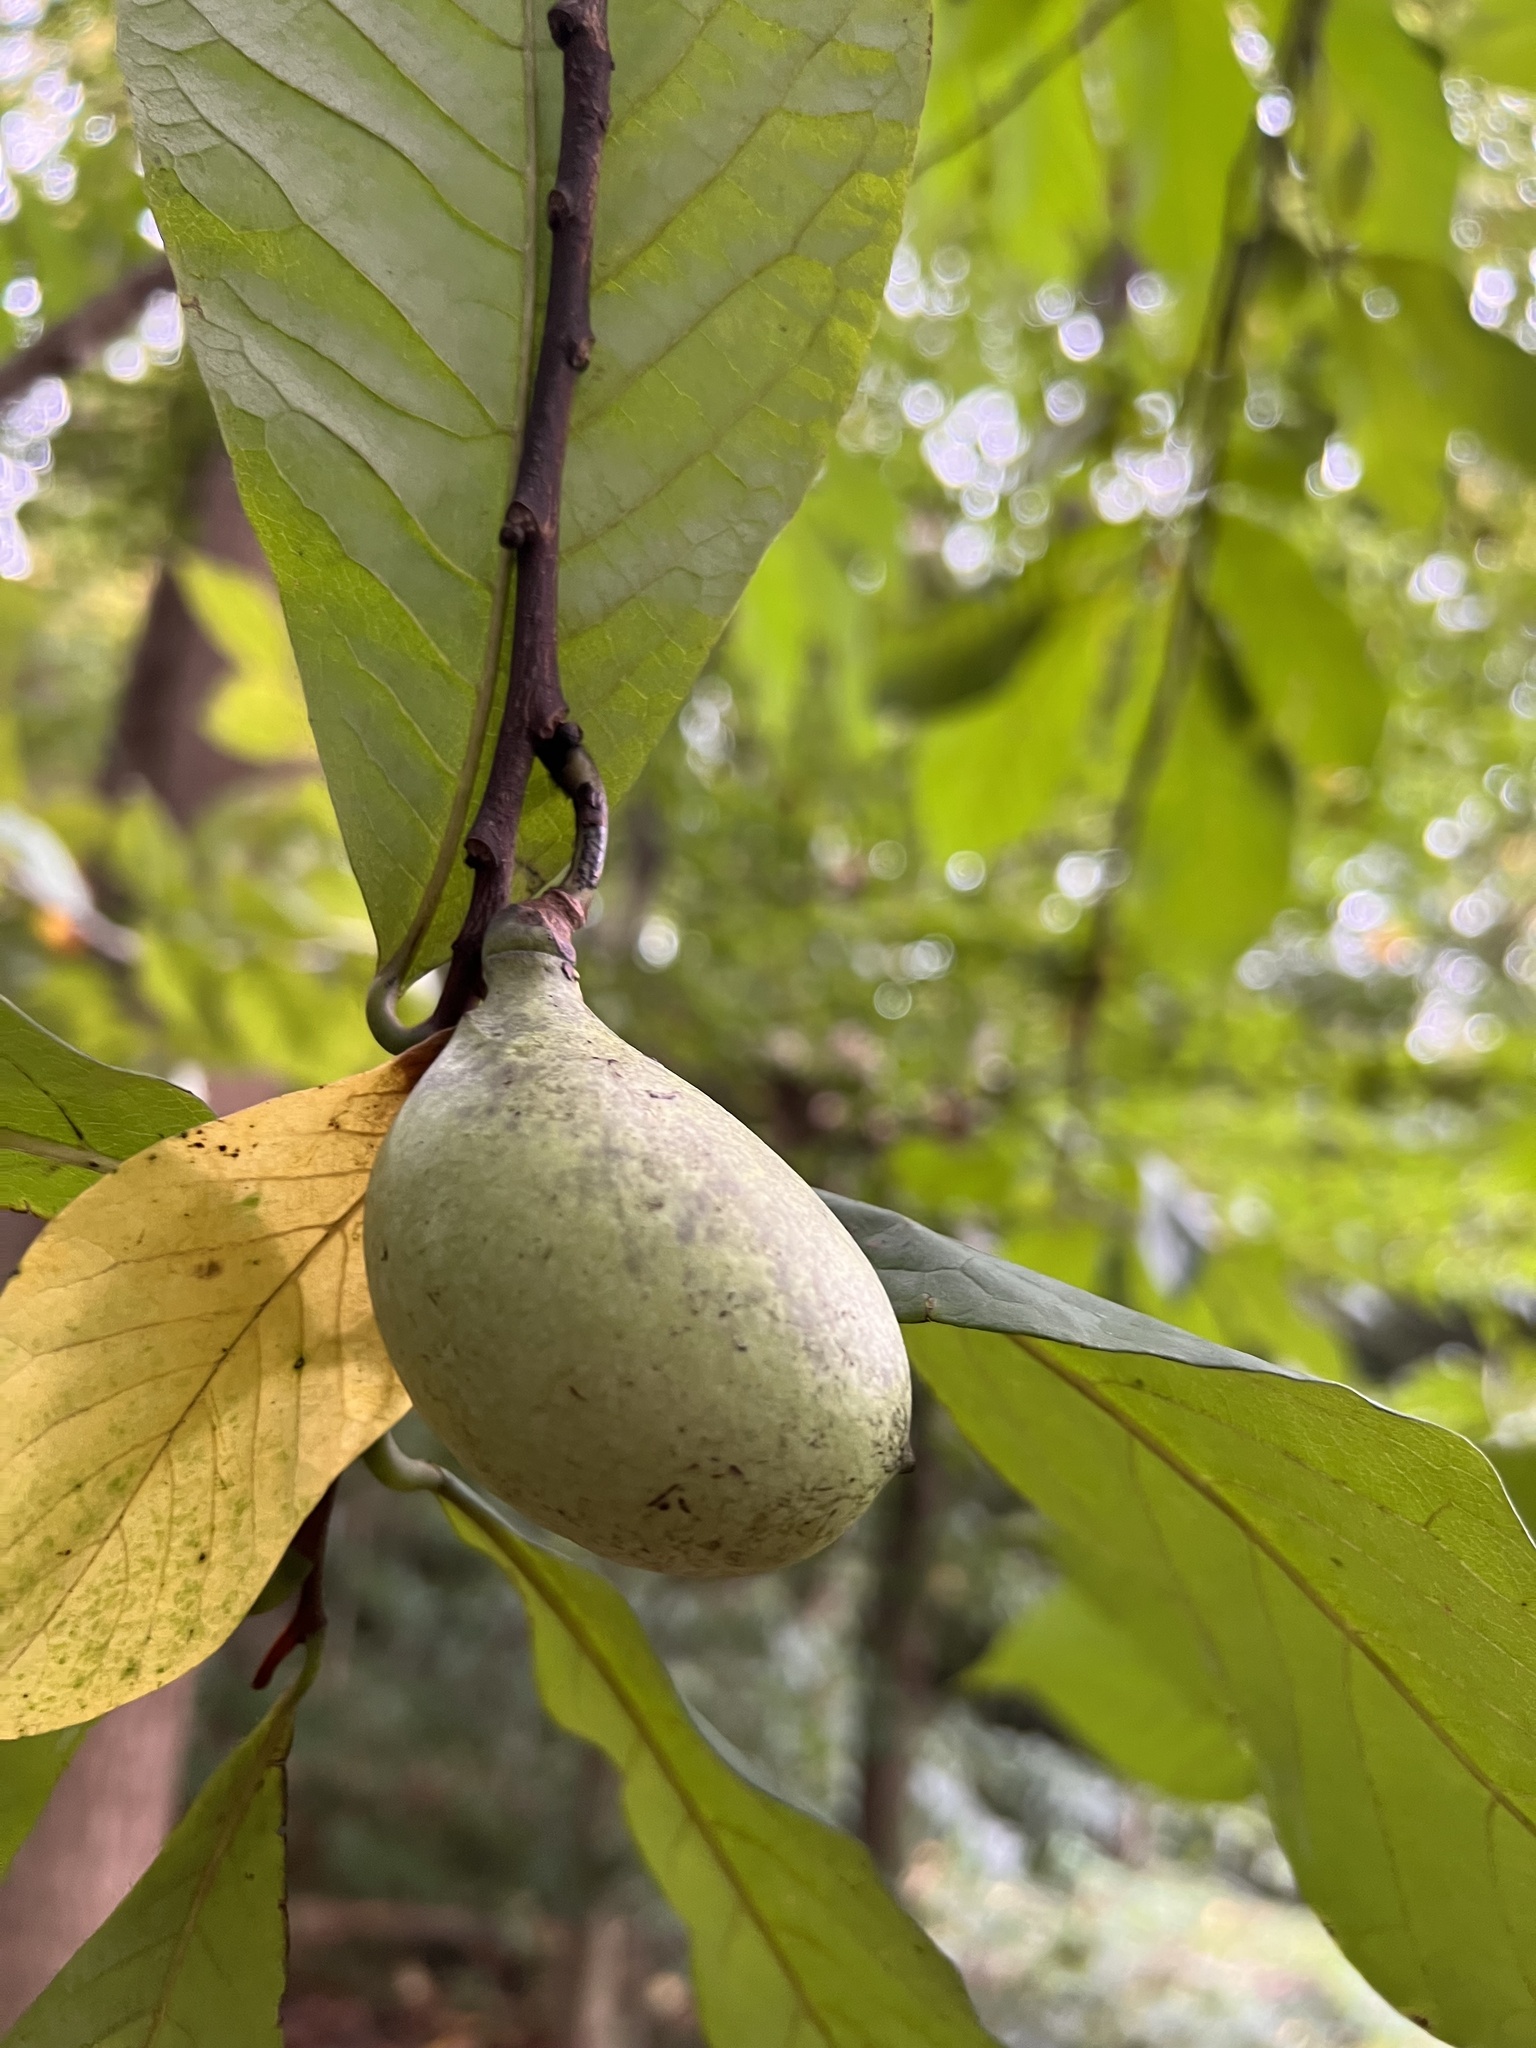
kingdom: Plantae
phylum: Tracheophyta
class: Magnoliopsida
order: Magnoliales
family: Annonaceae
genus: Asimina
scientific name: Asimina triloba
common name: Dog-banana
